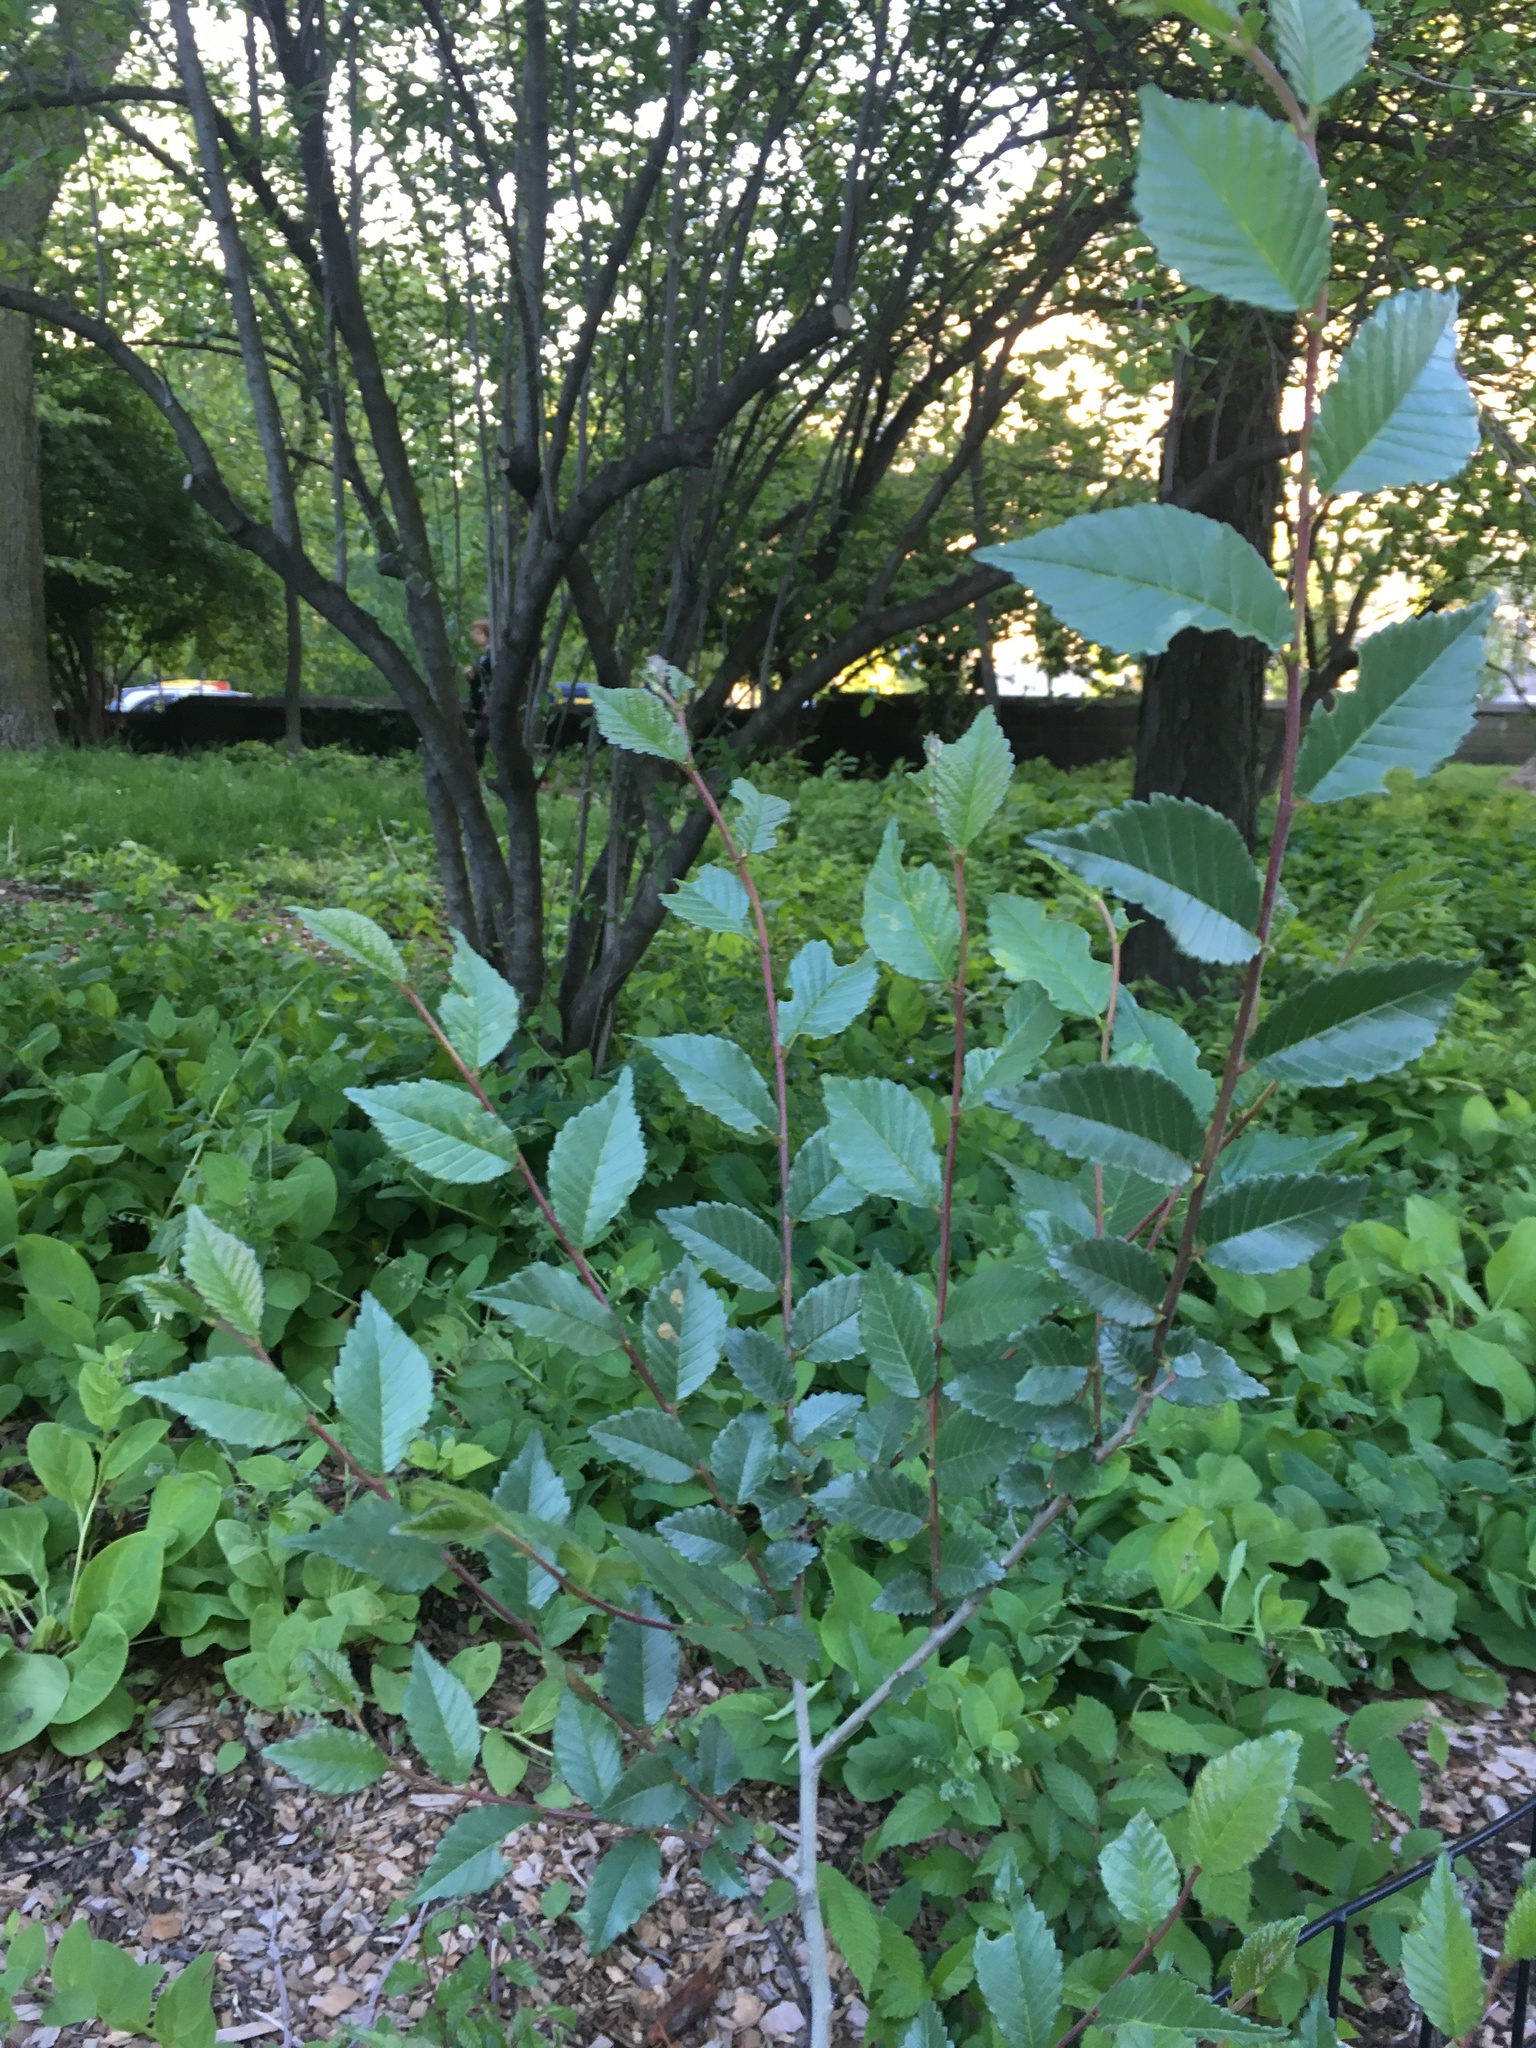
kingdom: Plantae
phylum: Tracheophyta
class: Magnoliopsida
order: Rosales
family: Ulmaceae
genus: Ulmus
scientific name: Ulmus pumila
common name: Siberian elm
